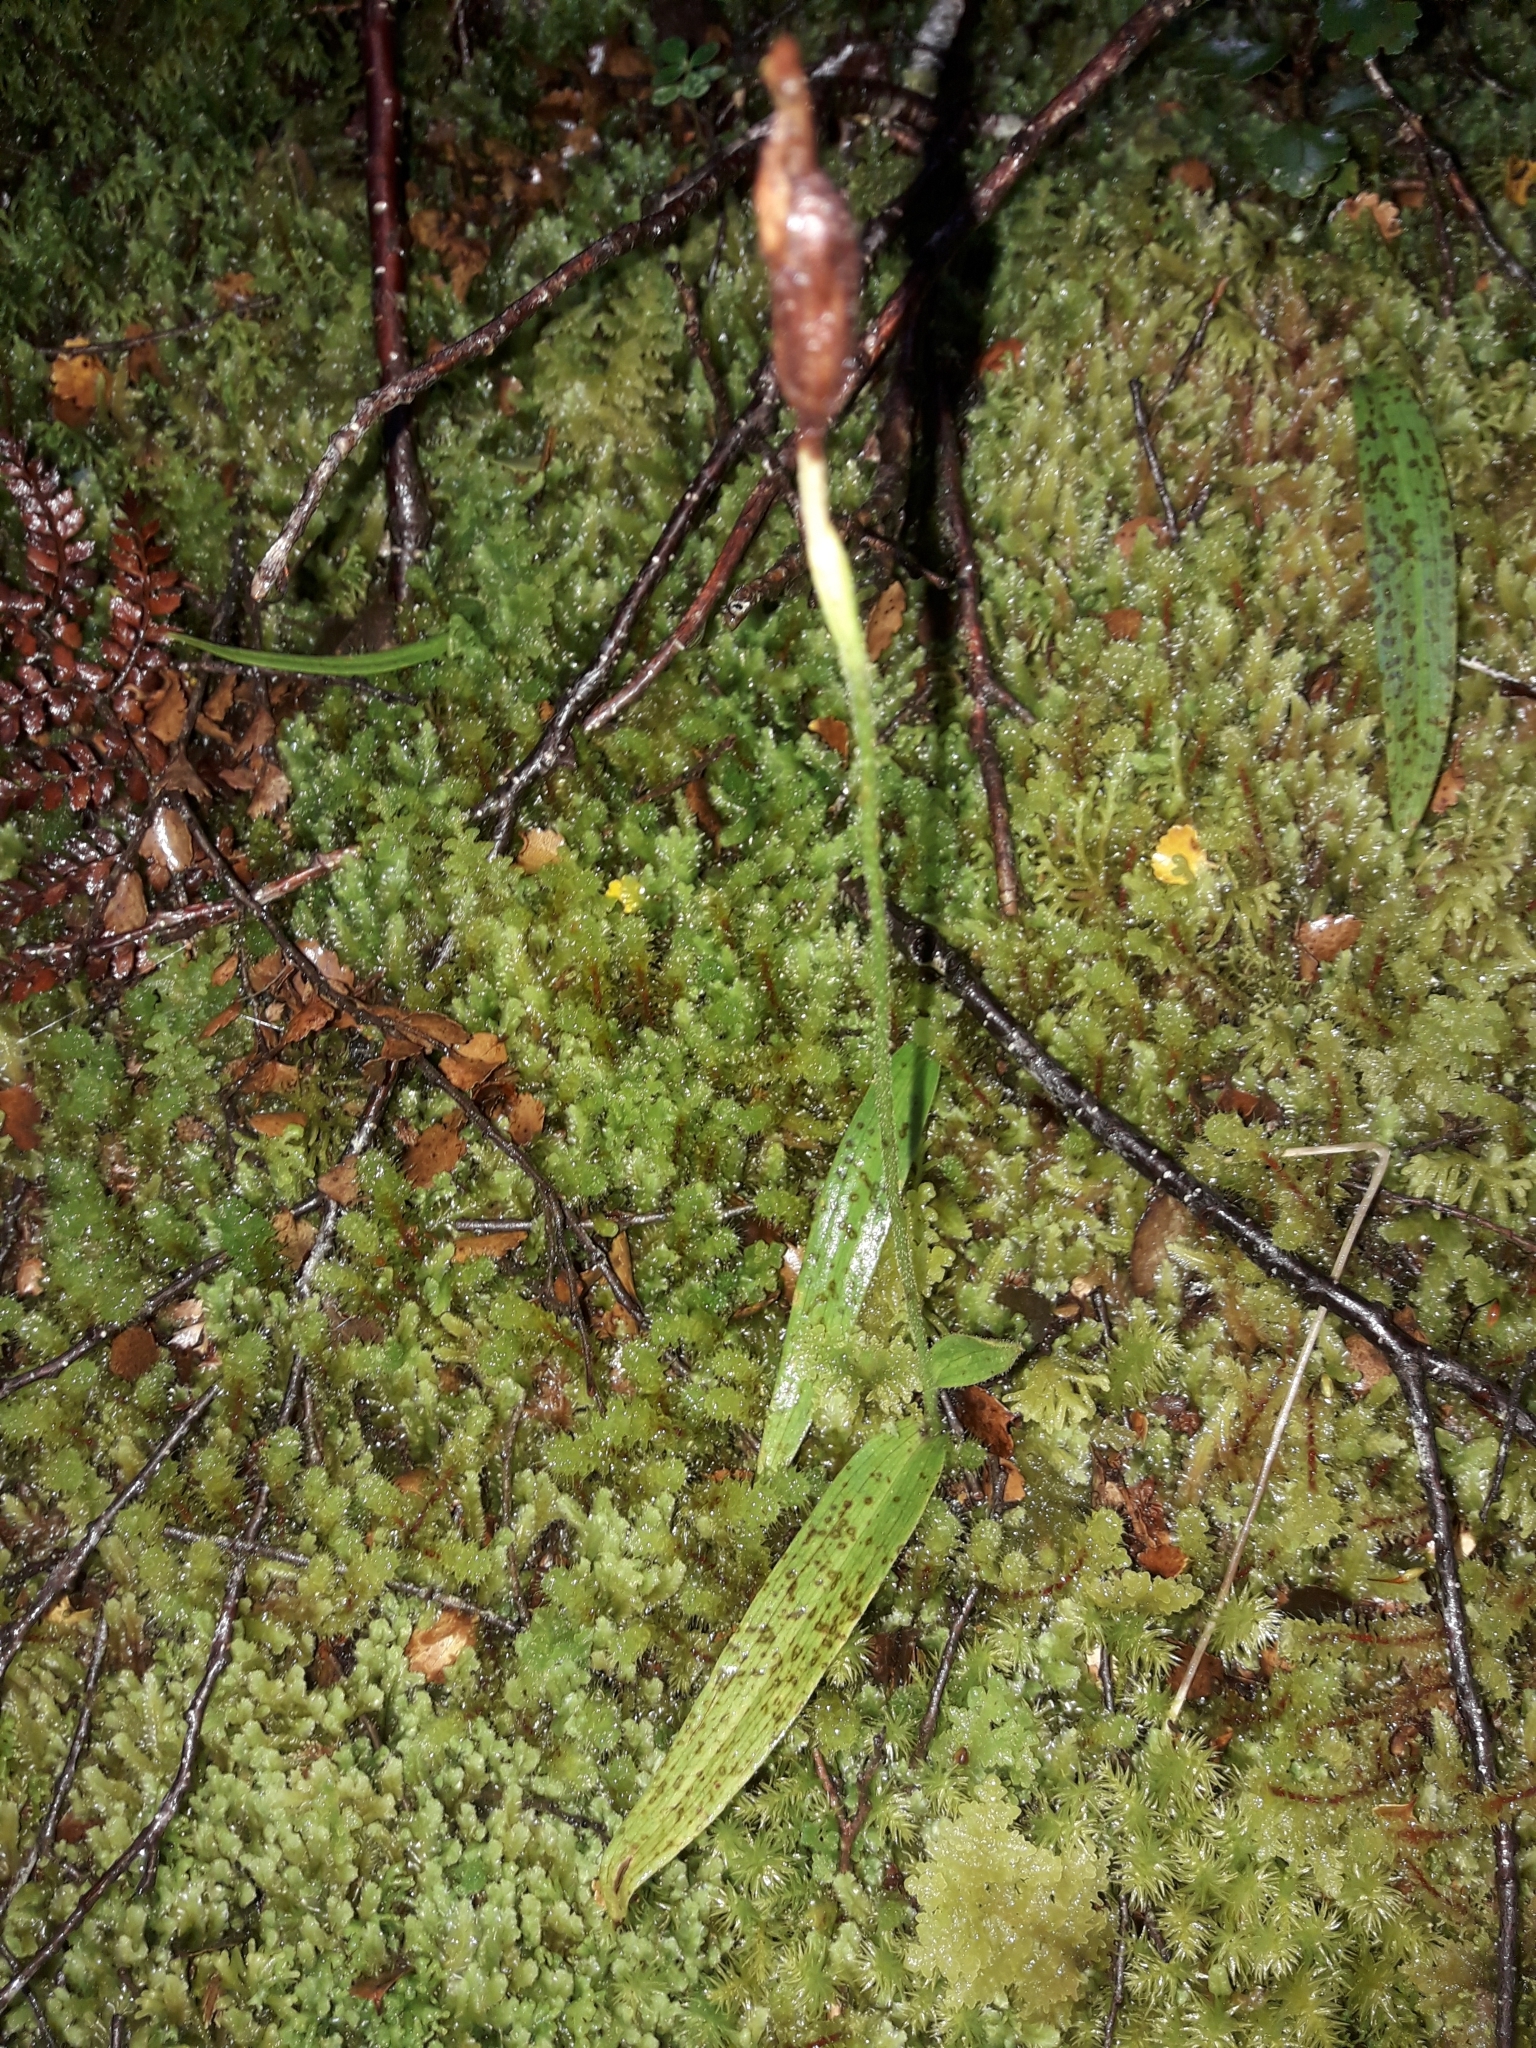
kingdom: Plantae
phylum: Tracheophyta
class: Liliopsida
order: Asparagales
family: Orchidaceae
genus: Aporostylis
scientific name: Aporostylis bifolia
